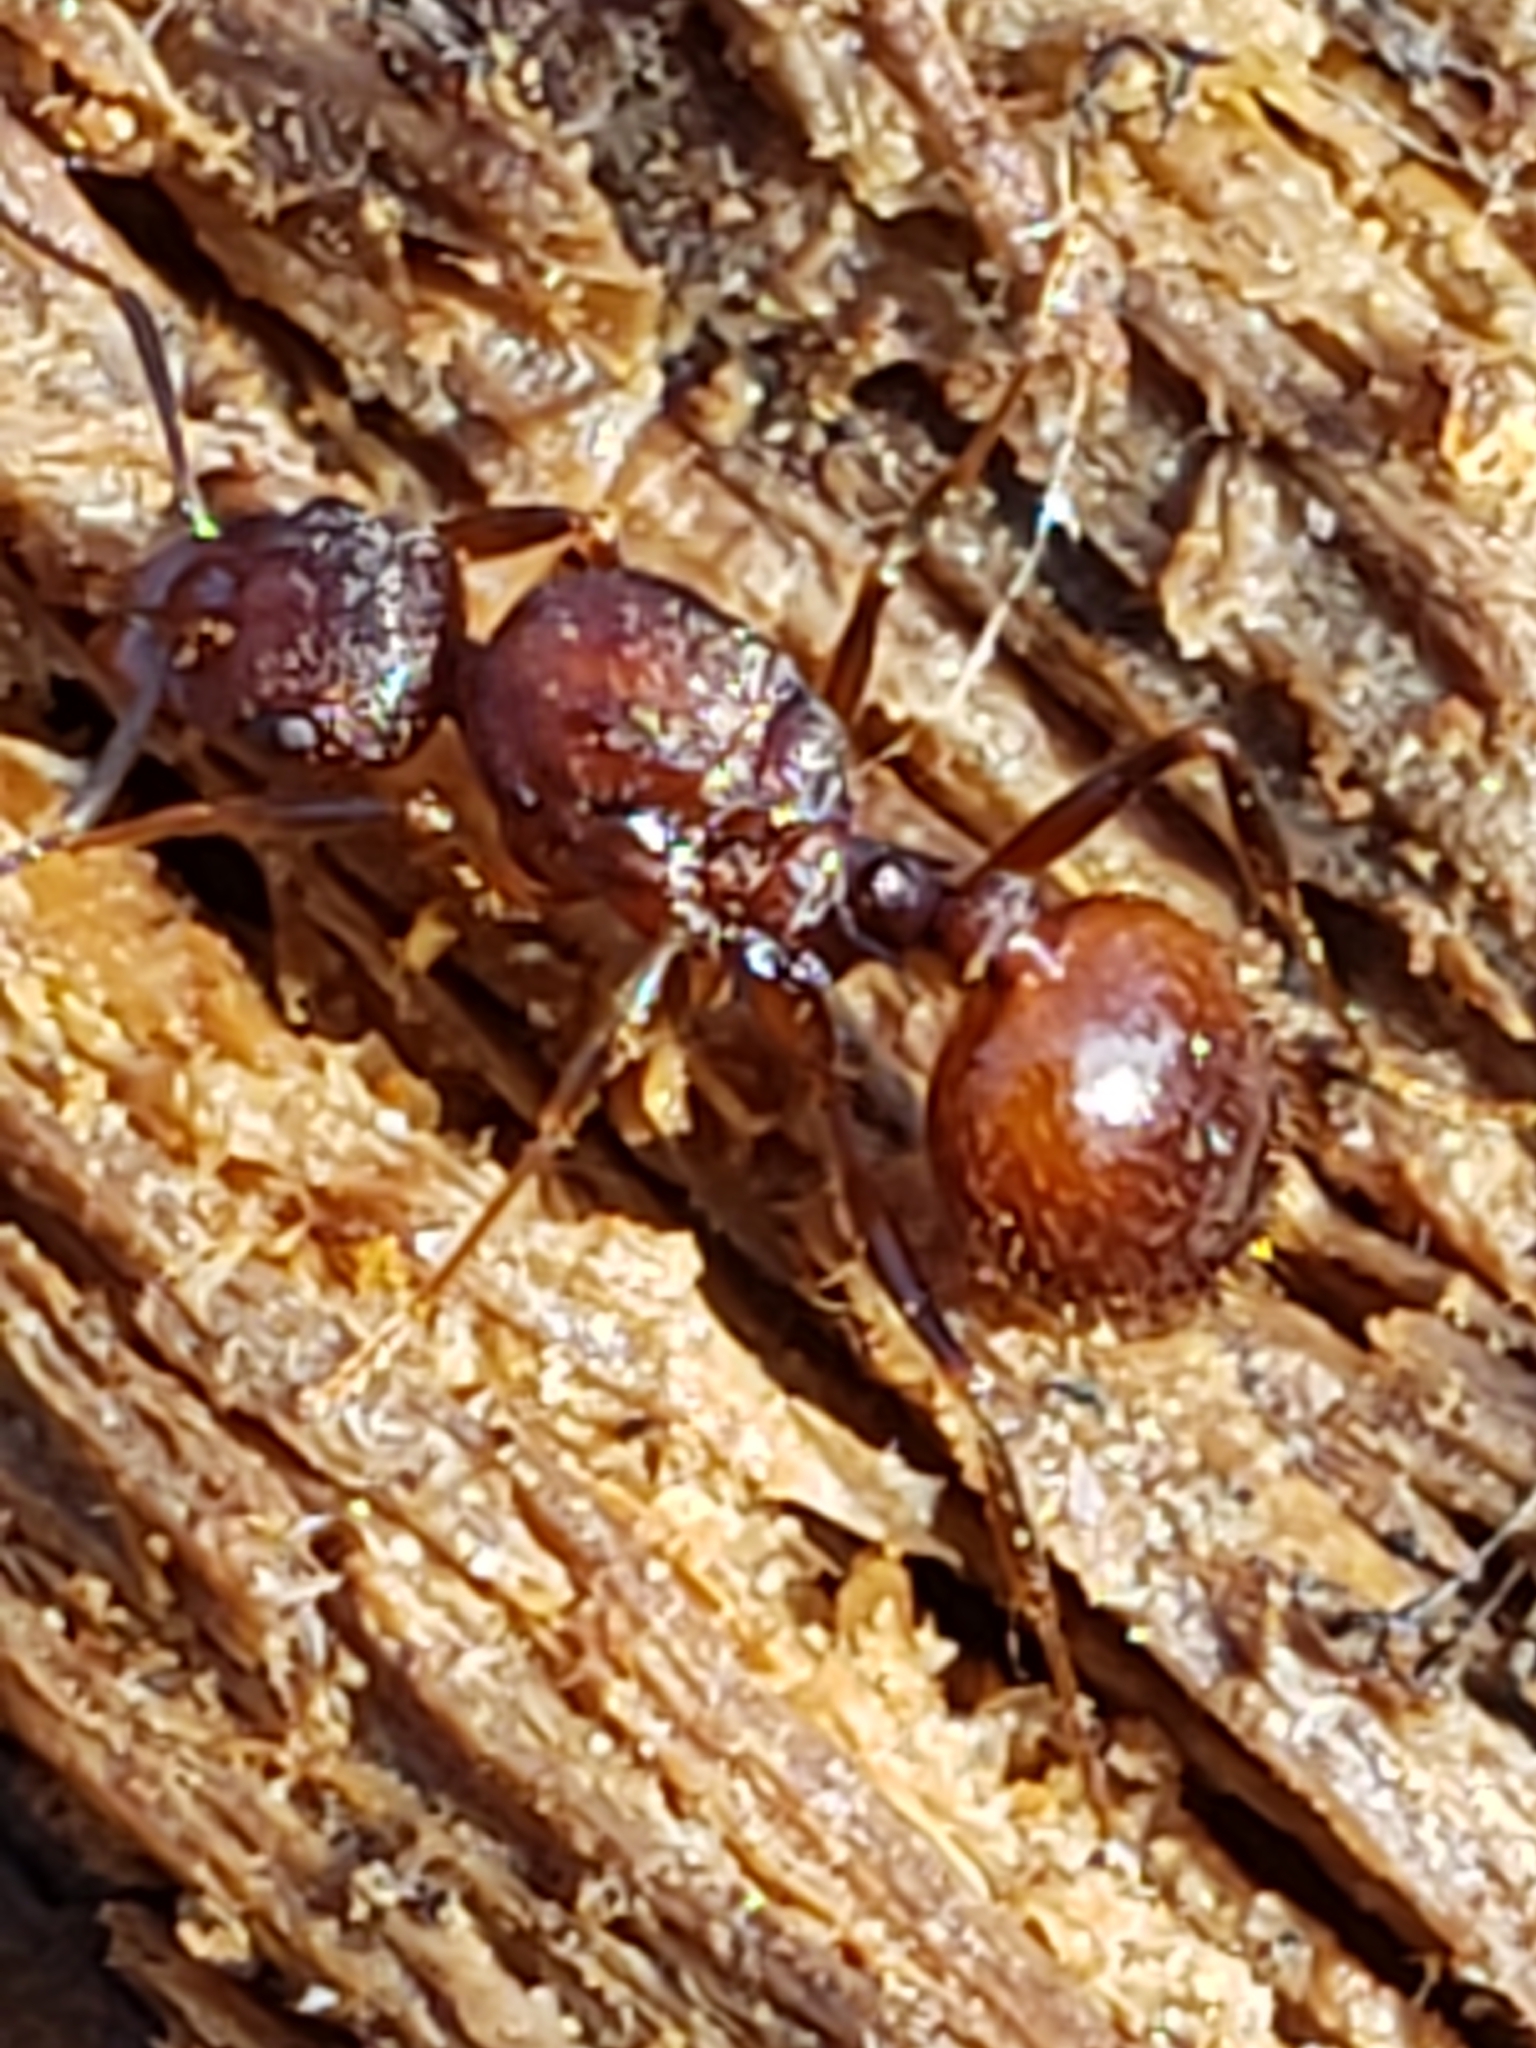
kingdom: Animalia
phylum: Arthropoda
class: Insecta
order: Hymenoptera
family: Formicidae
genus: Aphaenogaster
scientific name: Aphaenogaster fulva
